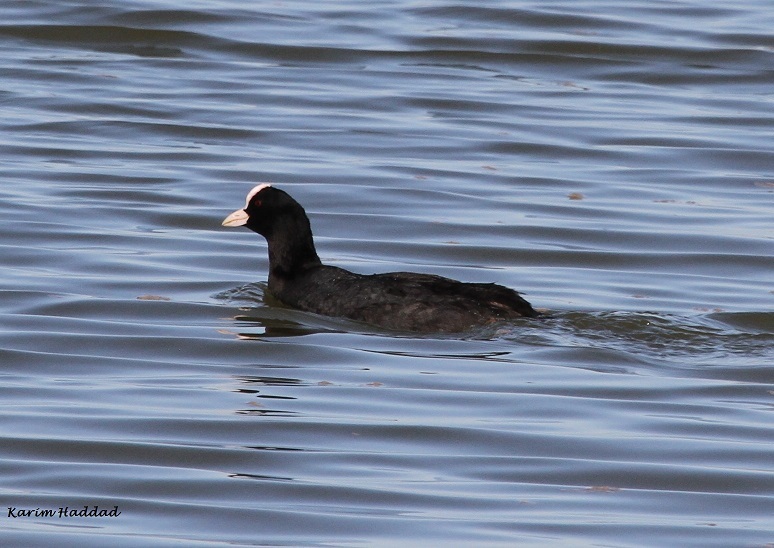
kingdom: Animalia
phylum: Chordata
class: Aves
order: Gruiformes
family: Rallidae
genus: Fulica
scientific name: Fulica atra
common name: Eurasian coot
